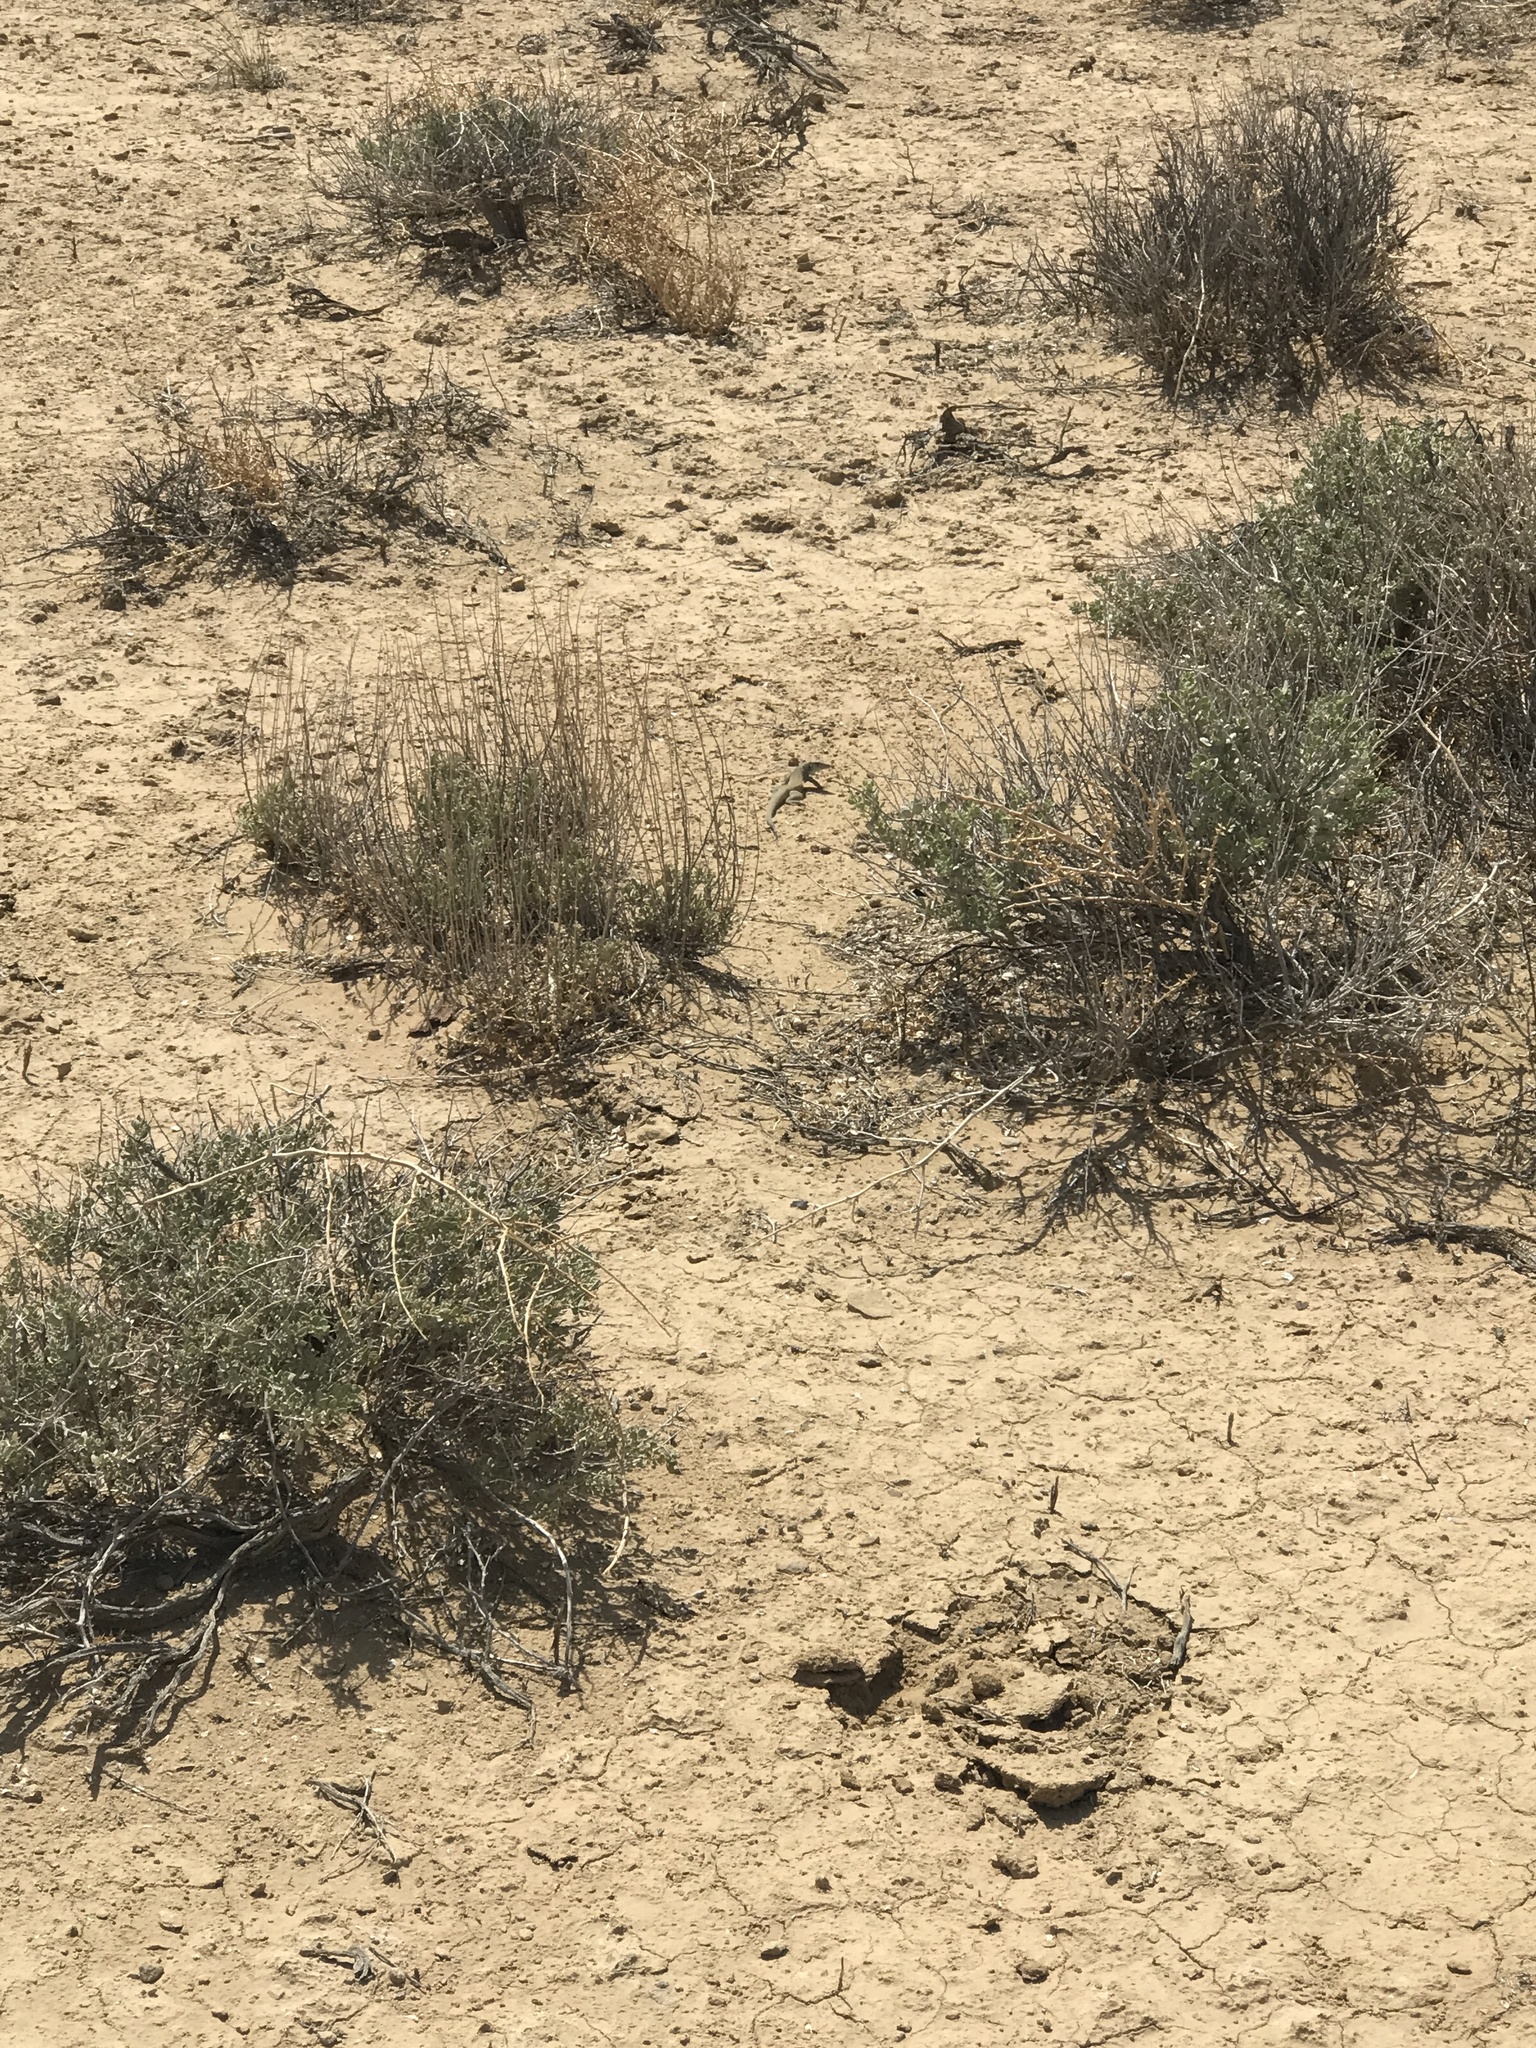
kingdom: Animalia
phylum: Chordata
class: Squamata
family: Teiidae
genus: Aspidoscelis
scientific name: Aspidoscelis tigris
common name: Tiger whiptail
